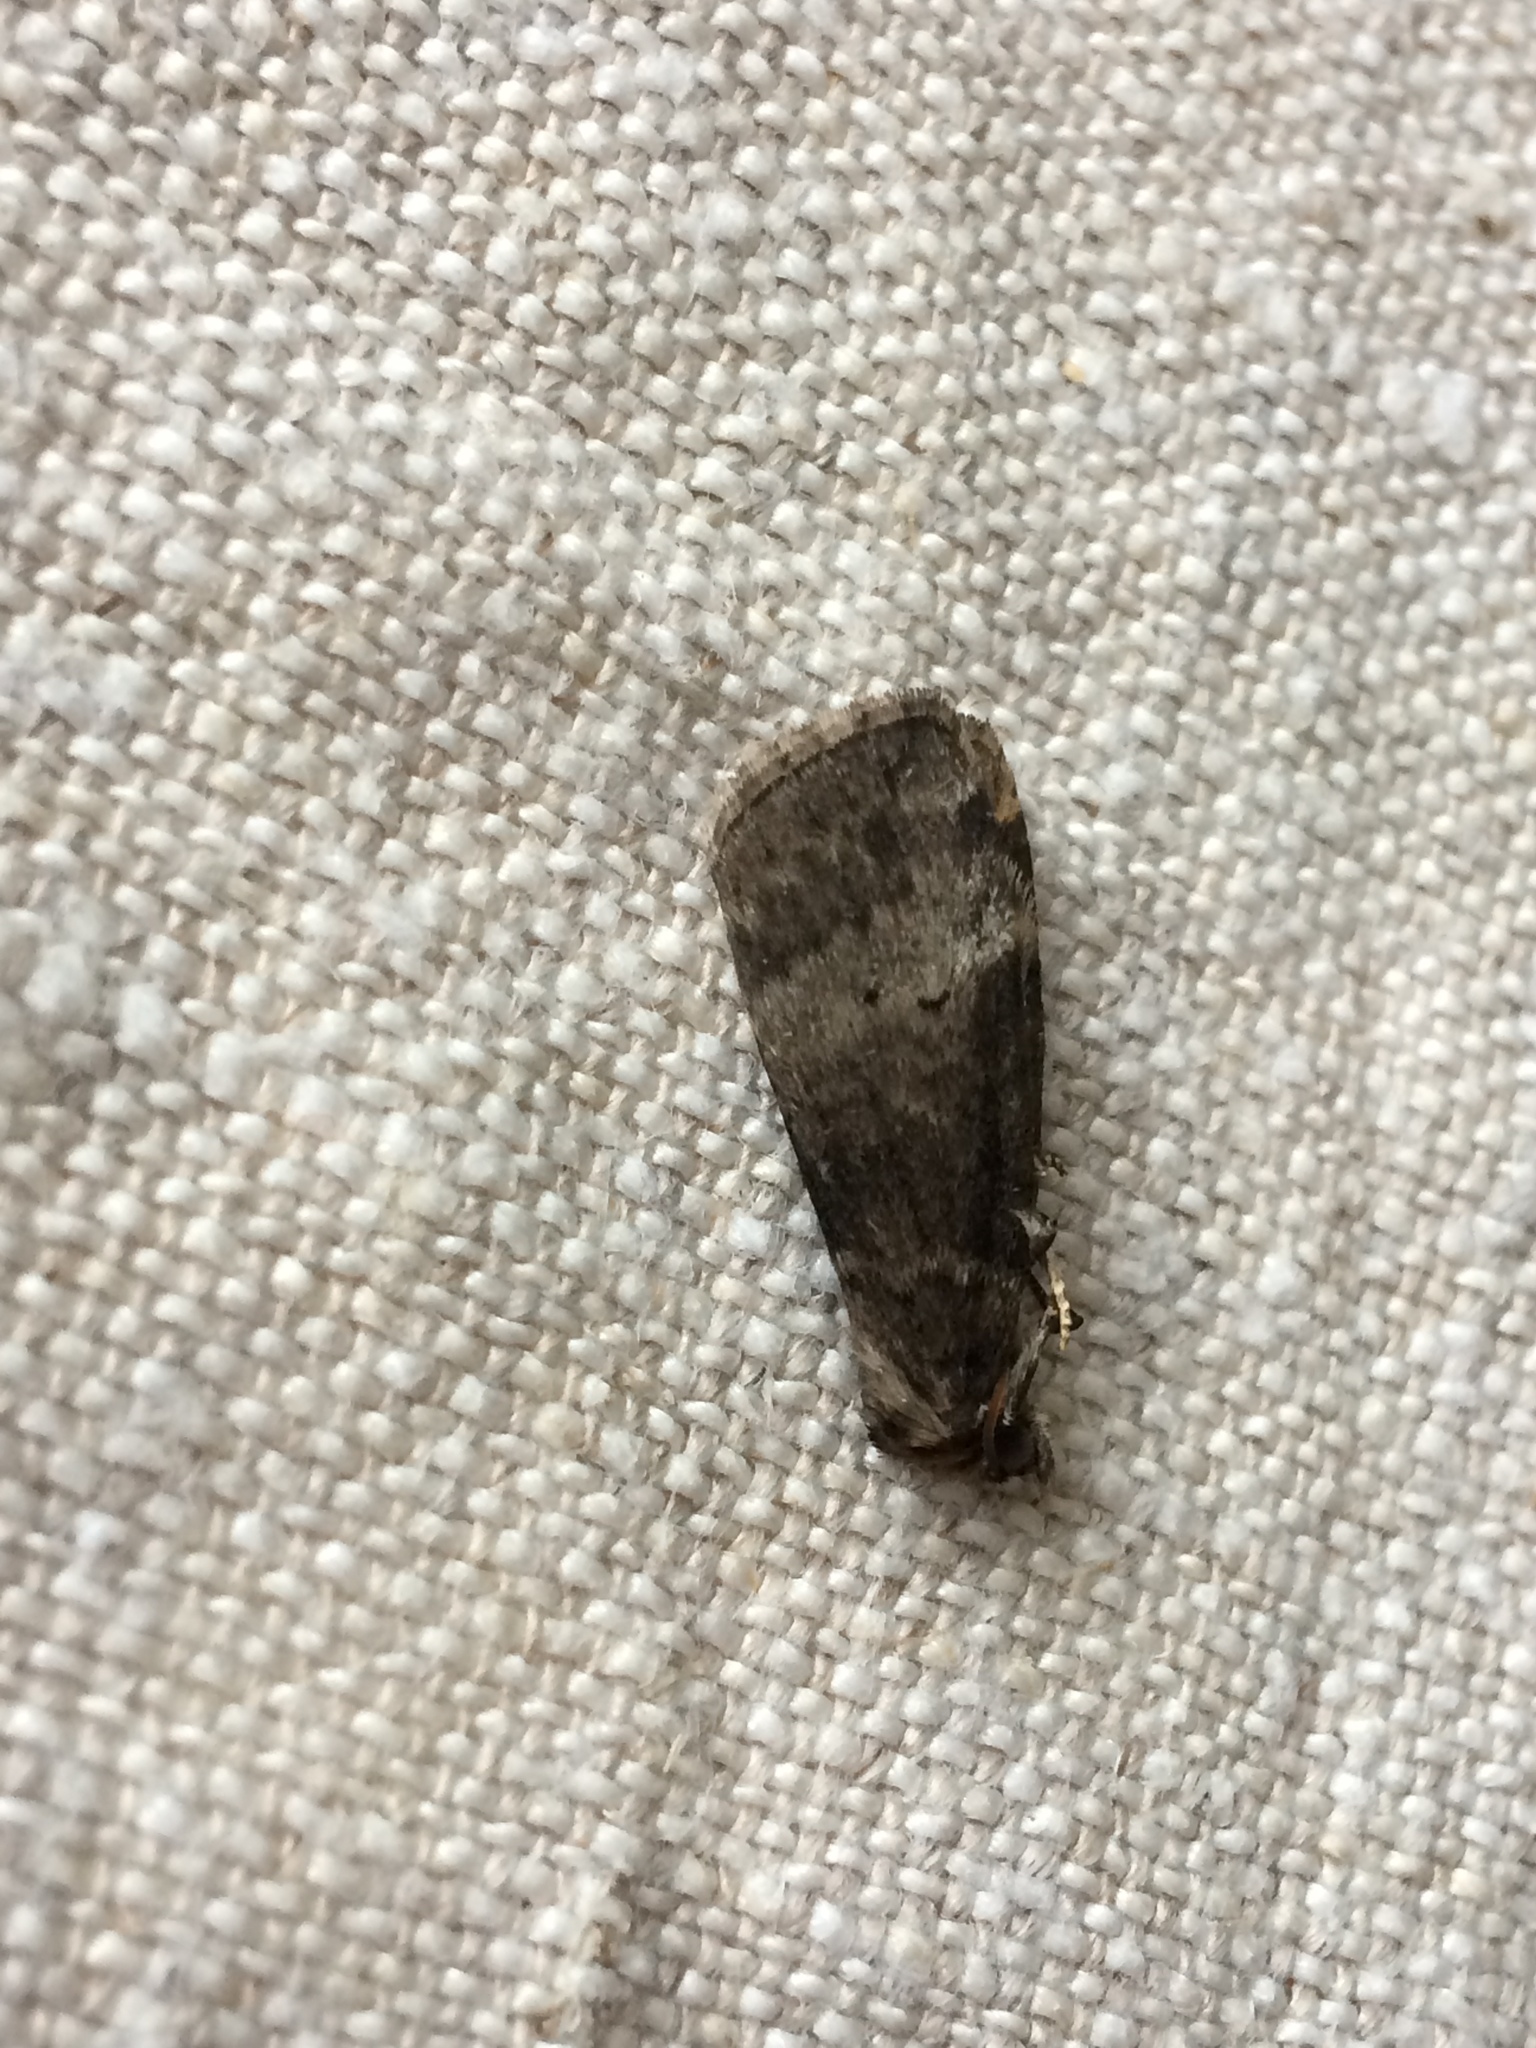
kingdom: Animalia
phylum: Arthropoda
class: Insecta
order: Lepidoptera
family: Drepanidae
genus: Ochropacha
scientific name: Ochropacha duplaris
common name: Common lutestring
